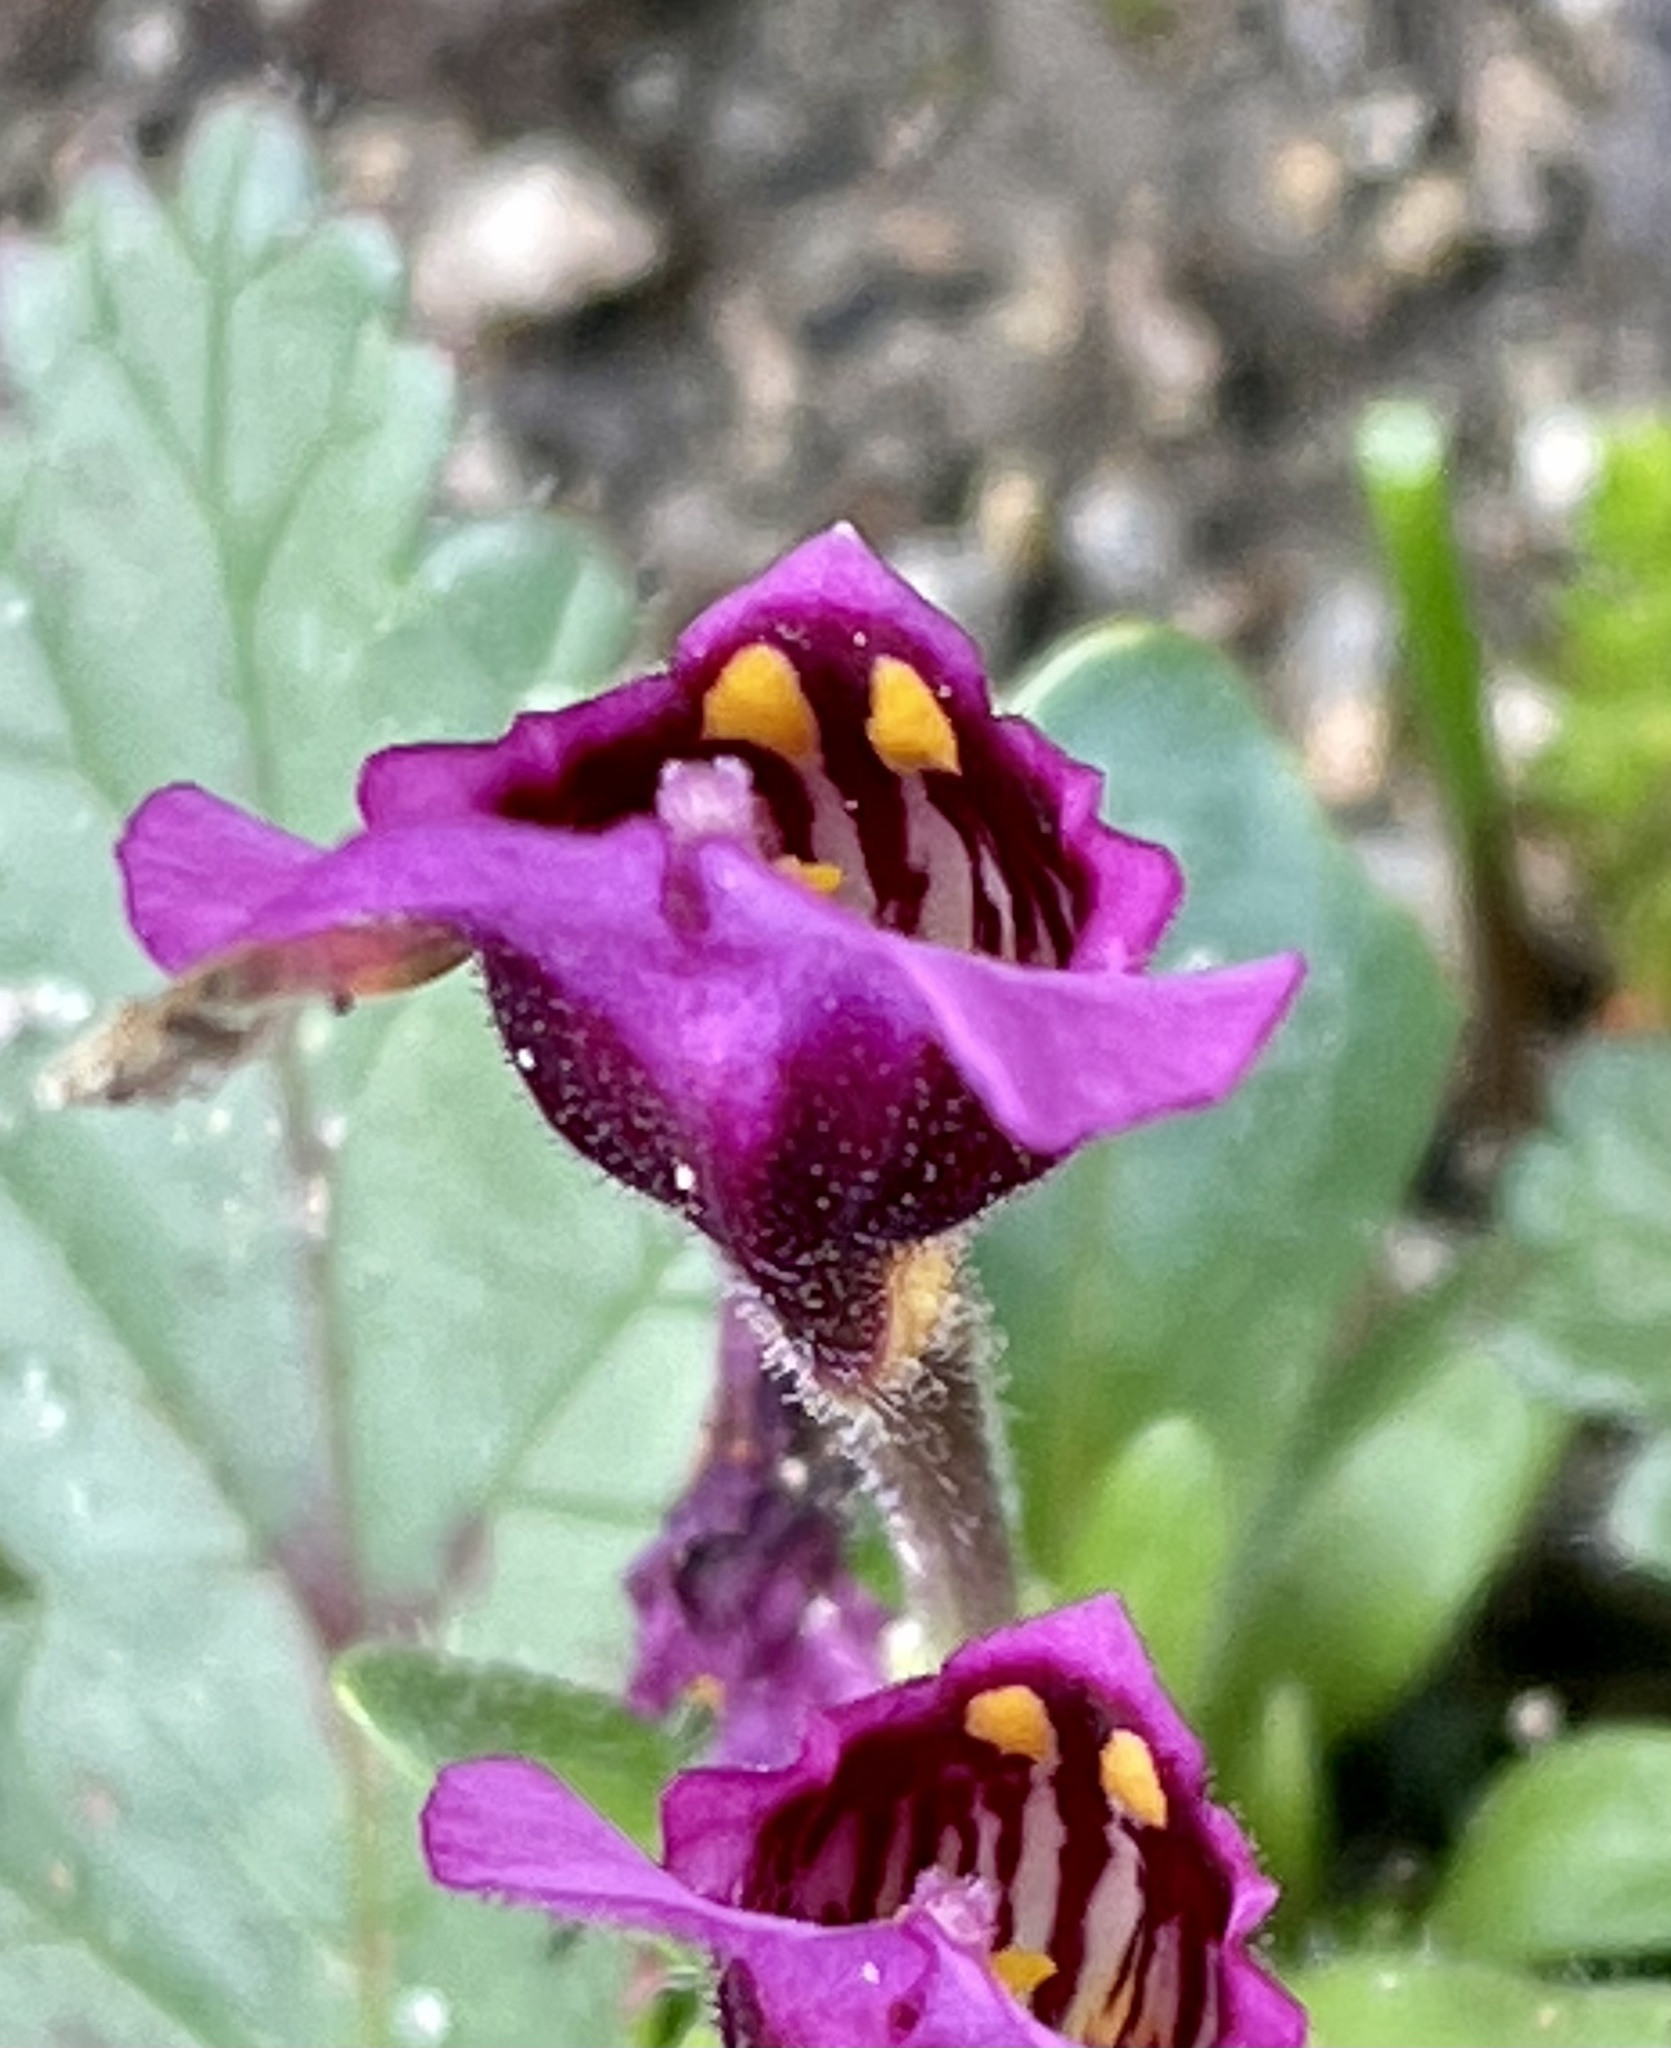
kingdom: Plantae
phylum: Tracheophyta
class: Magnoliopsida
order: Lamiales
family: Phrymaceae
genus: Diplacus
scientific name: Diplacus douglasii
